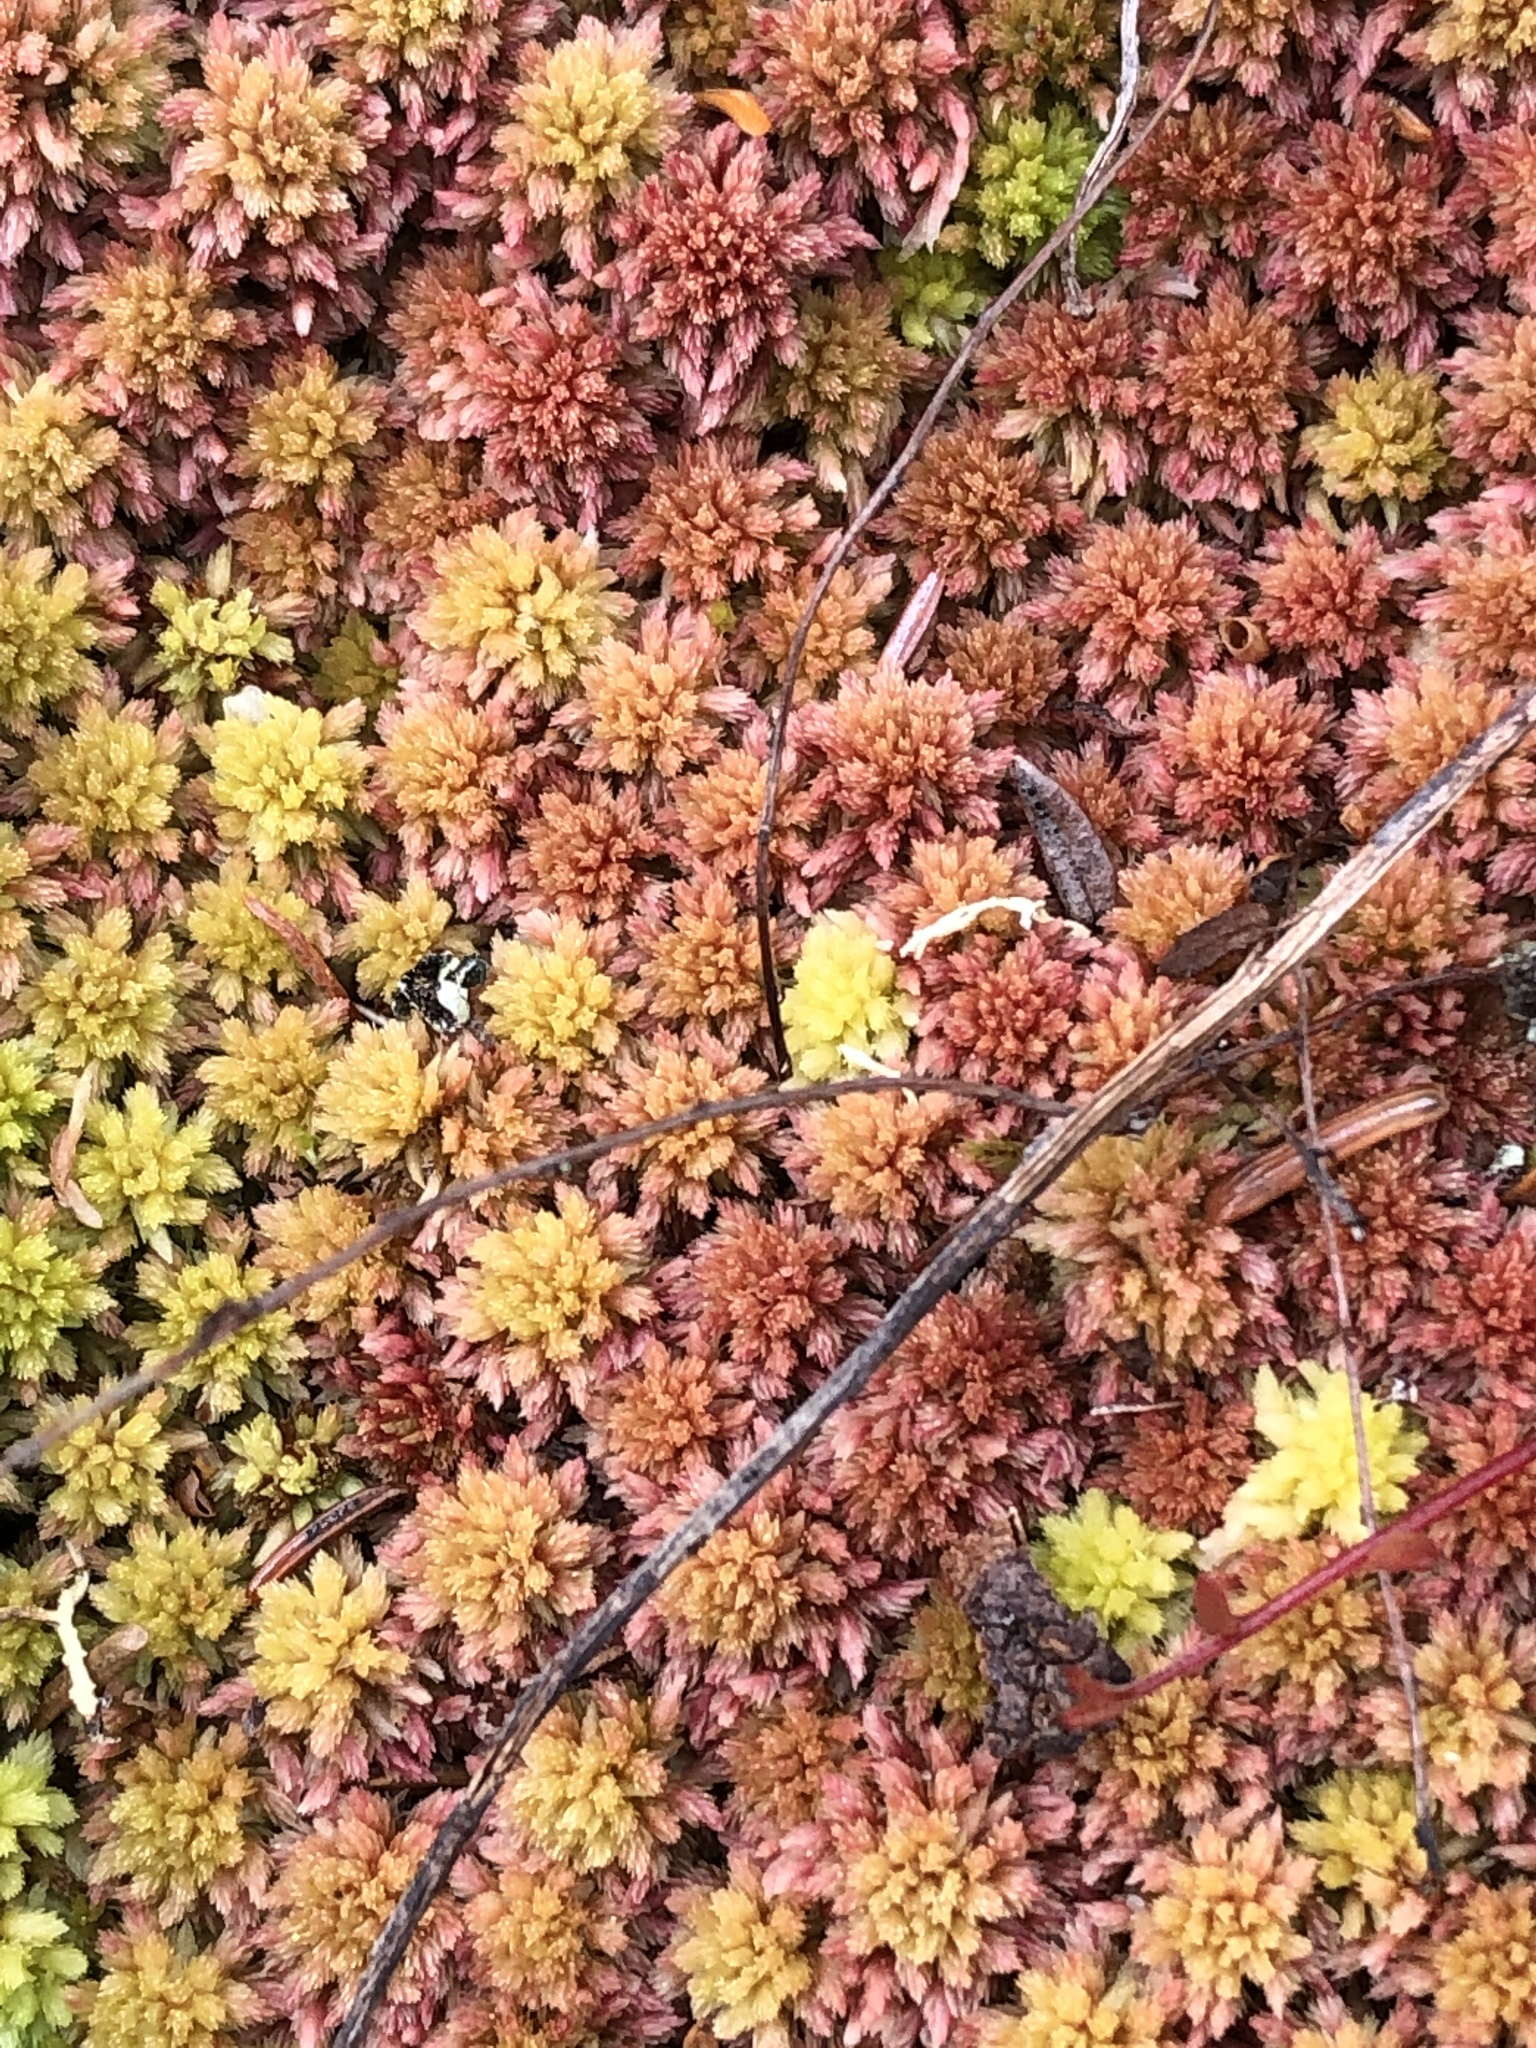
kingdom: Plantae
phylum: Bryophyta
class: Sphagnopsida
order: Sphagnales
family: Sphagnaceae
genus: Sphagnum
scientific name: Sphagnum capillifolium
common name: Small red peat moss
